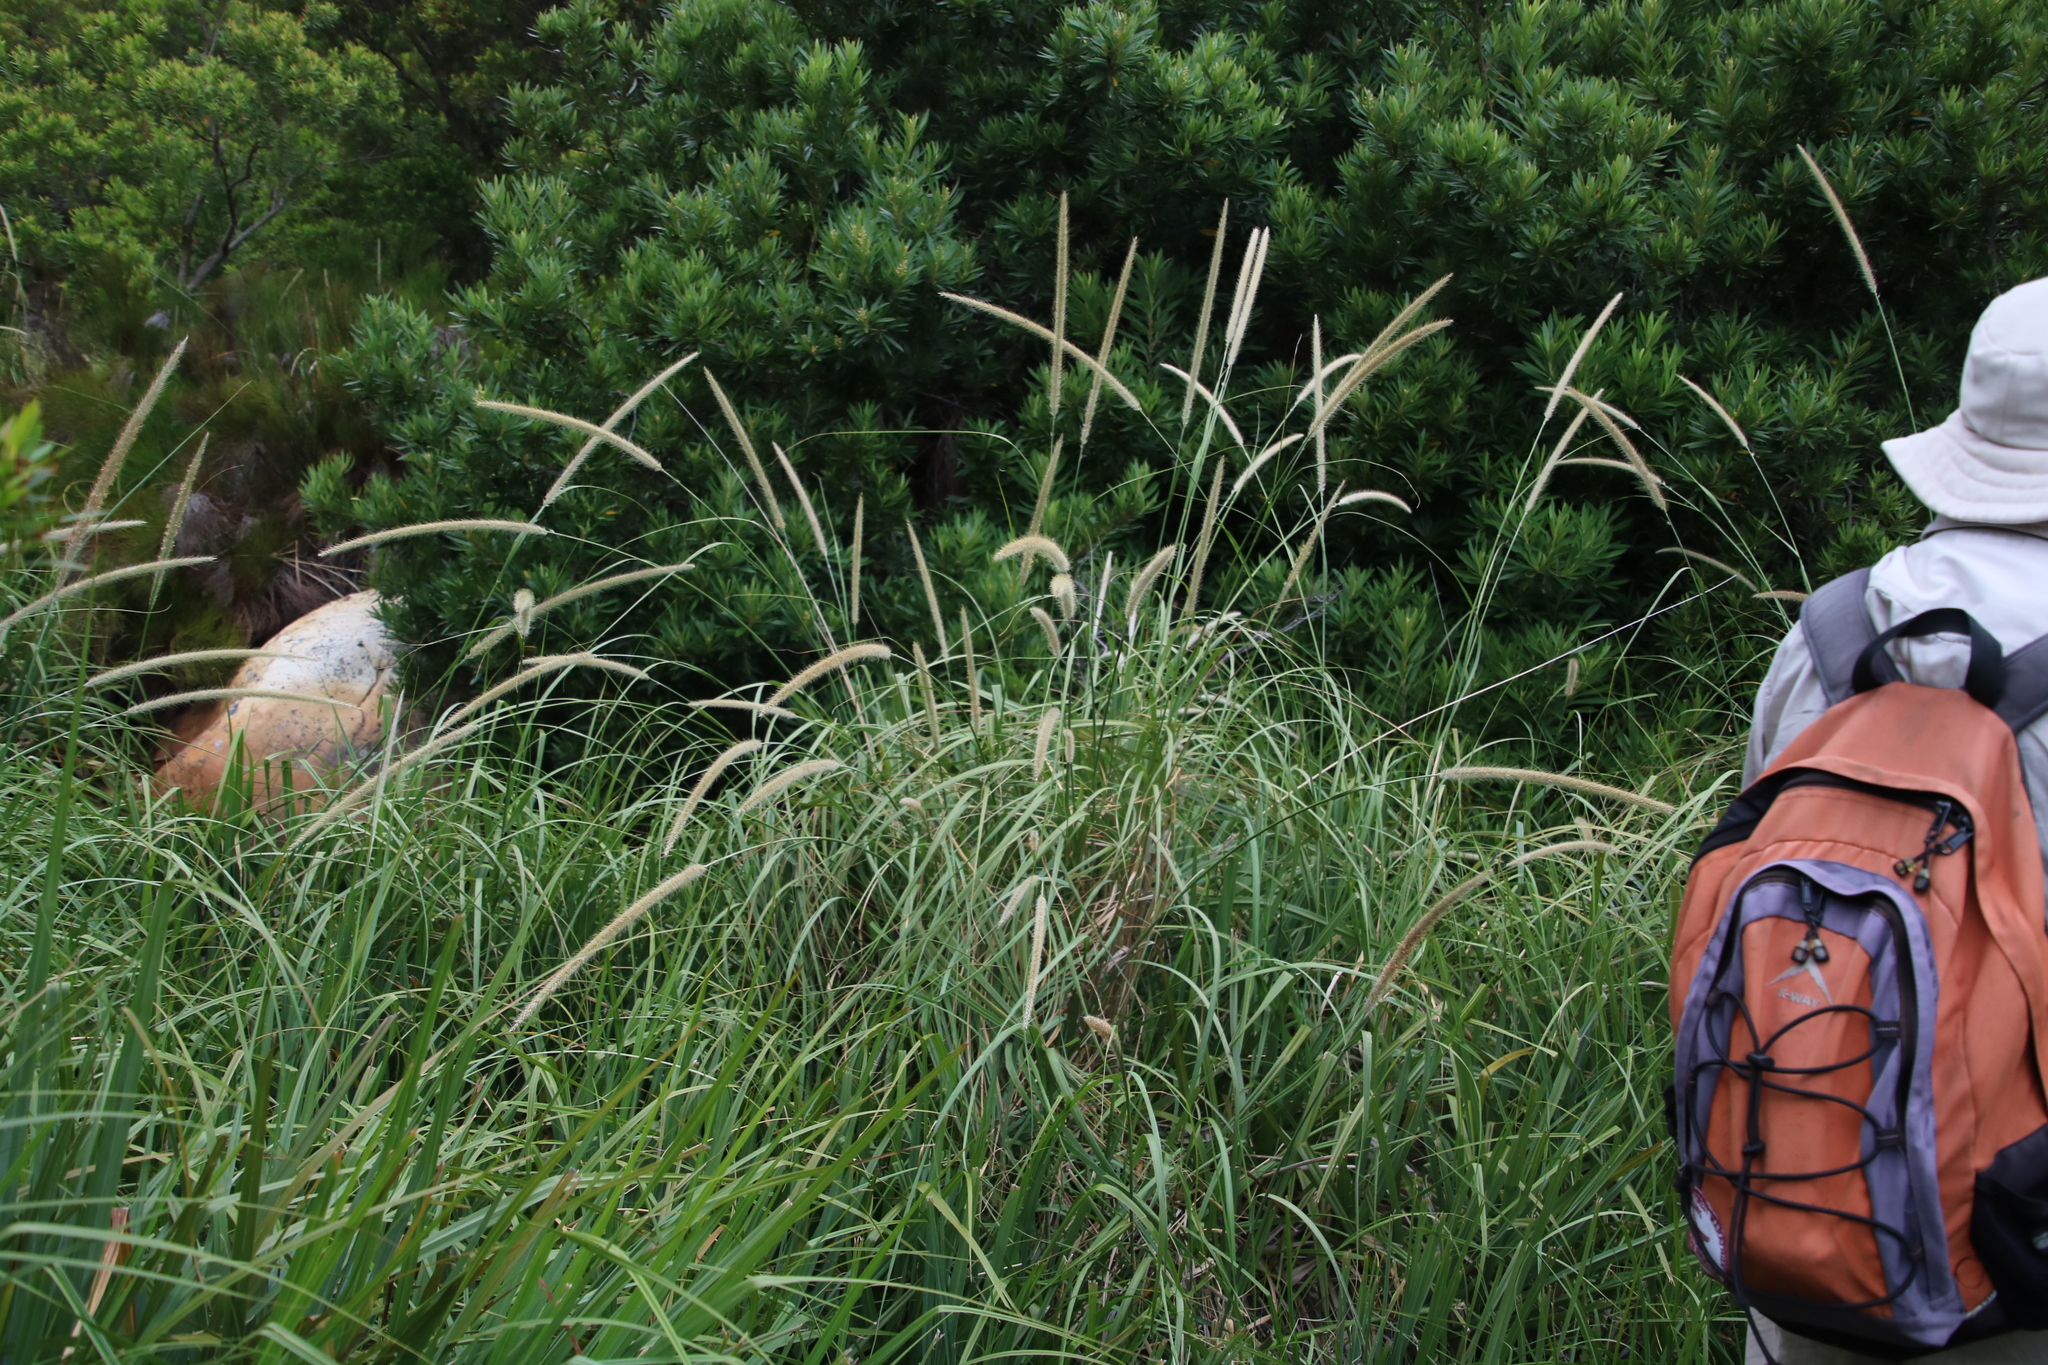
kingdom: Plantae
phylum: Tracheophyta
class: Liliopsida
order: Poales
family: Poaceae
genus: Cenchrus
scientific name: Cenchrus caudatus
